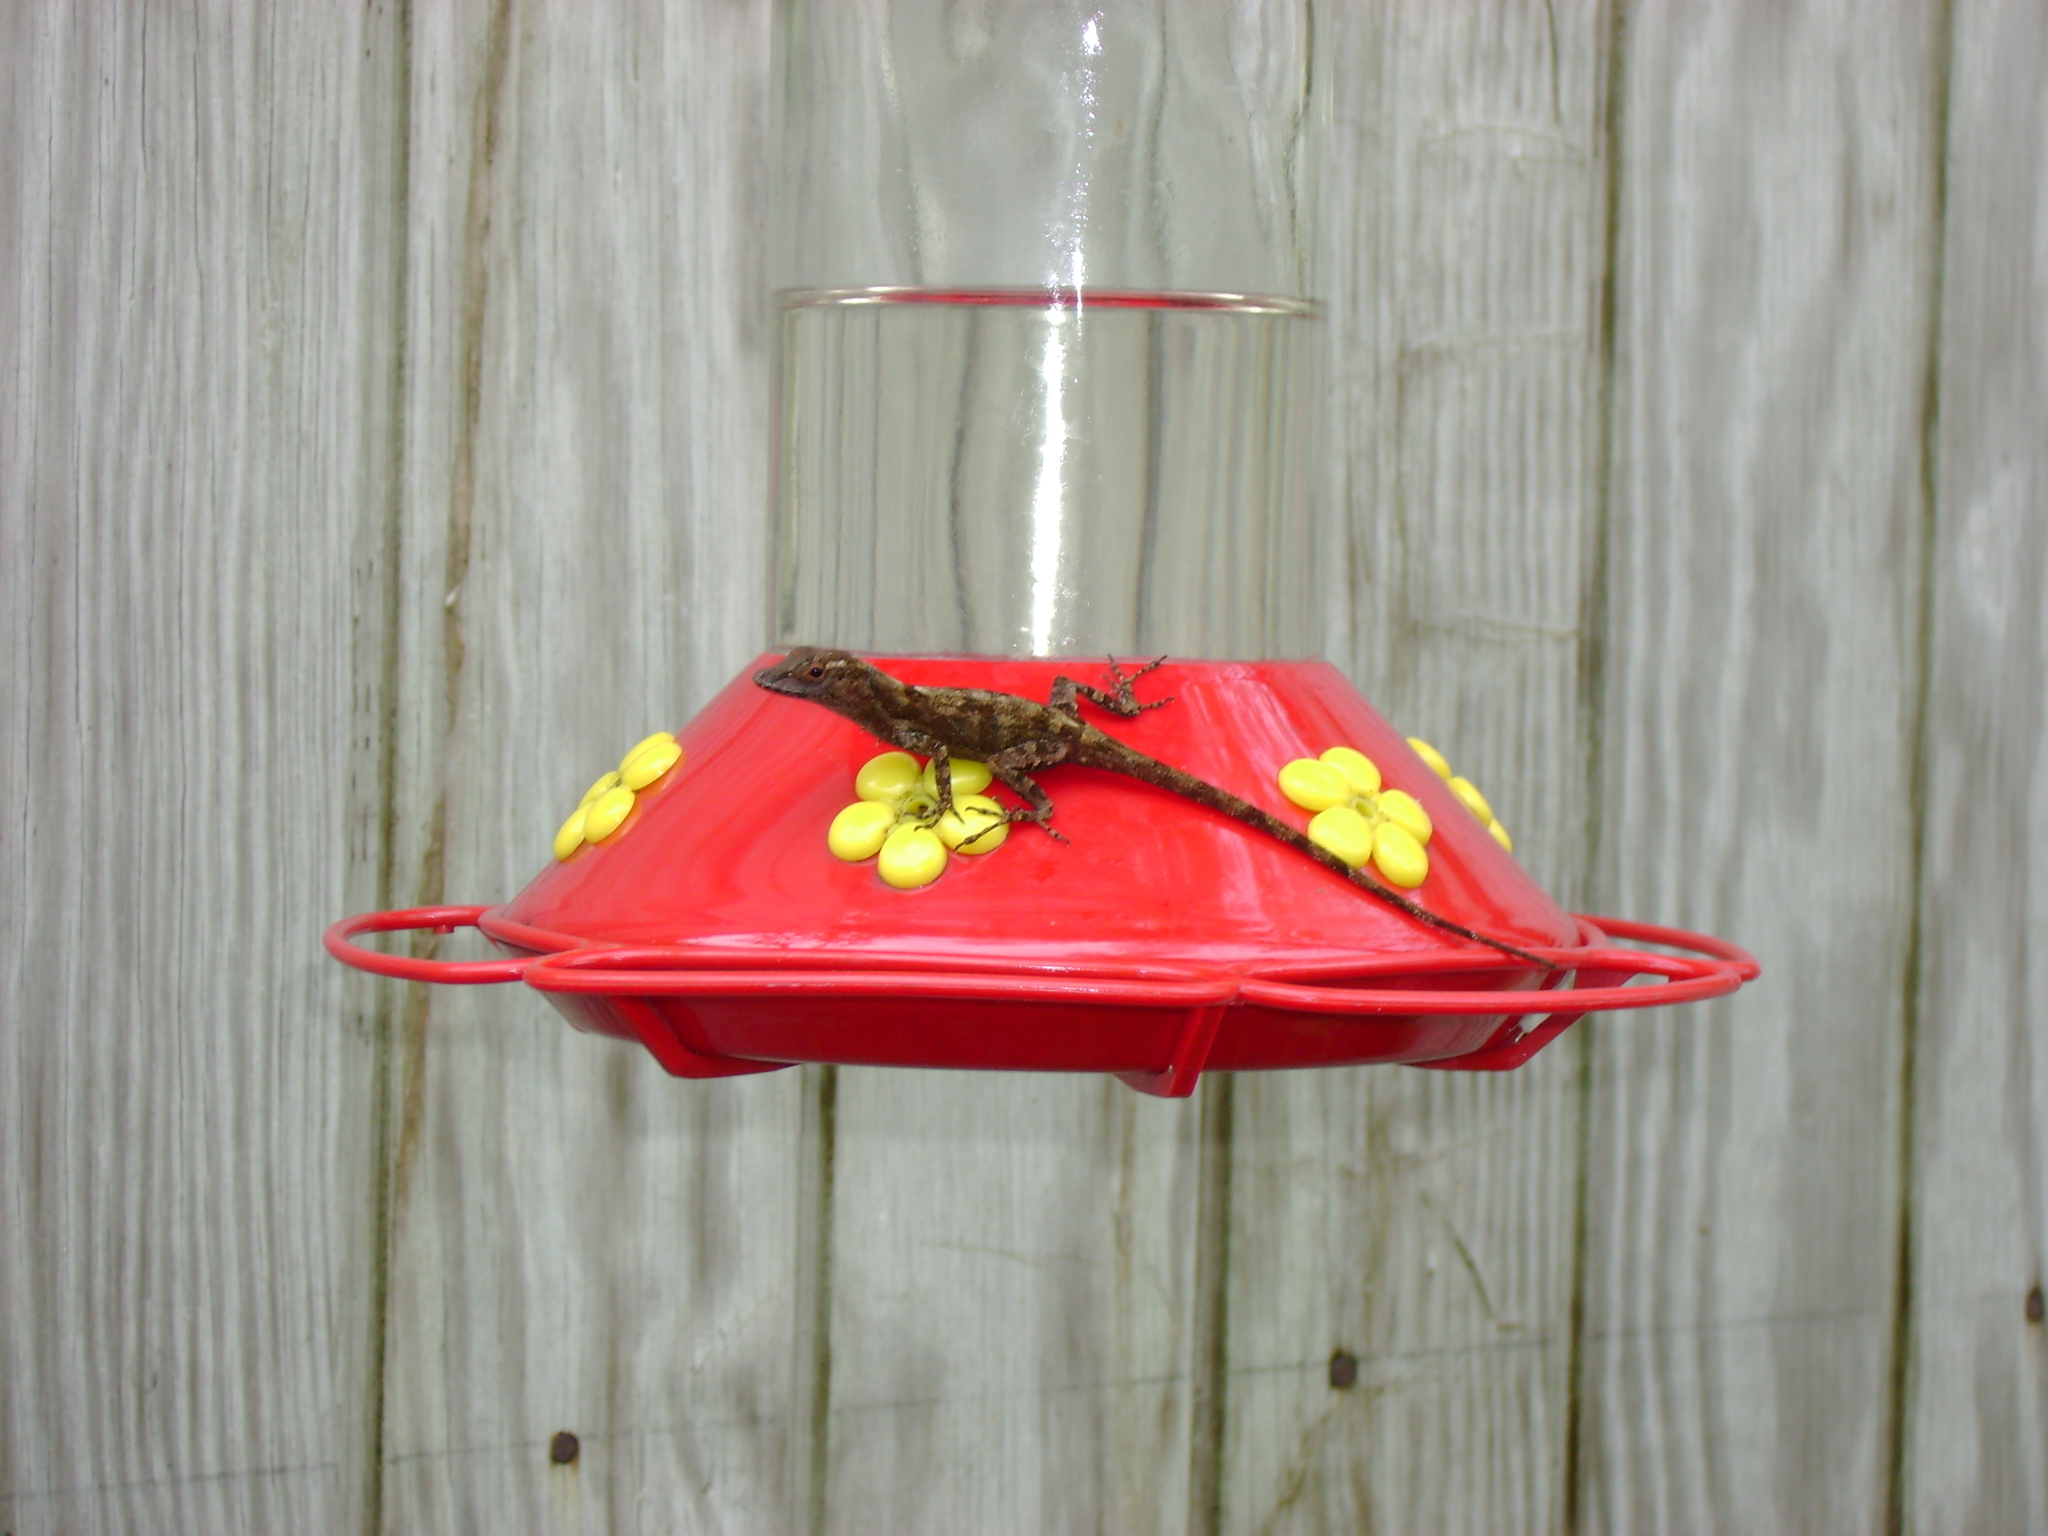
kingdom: Animalia
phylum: Chordata
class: Squamata
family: Dactyloidae
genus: Anolis
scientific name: Anolis cristatellus
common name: Crested anole
